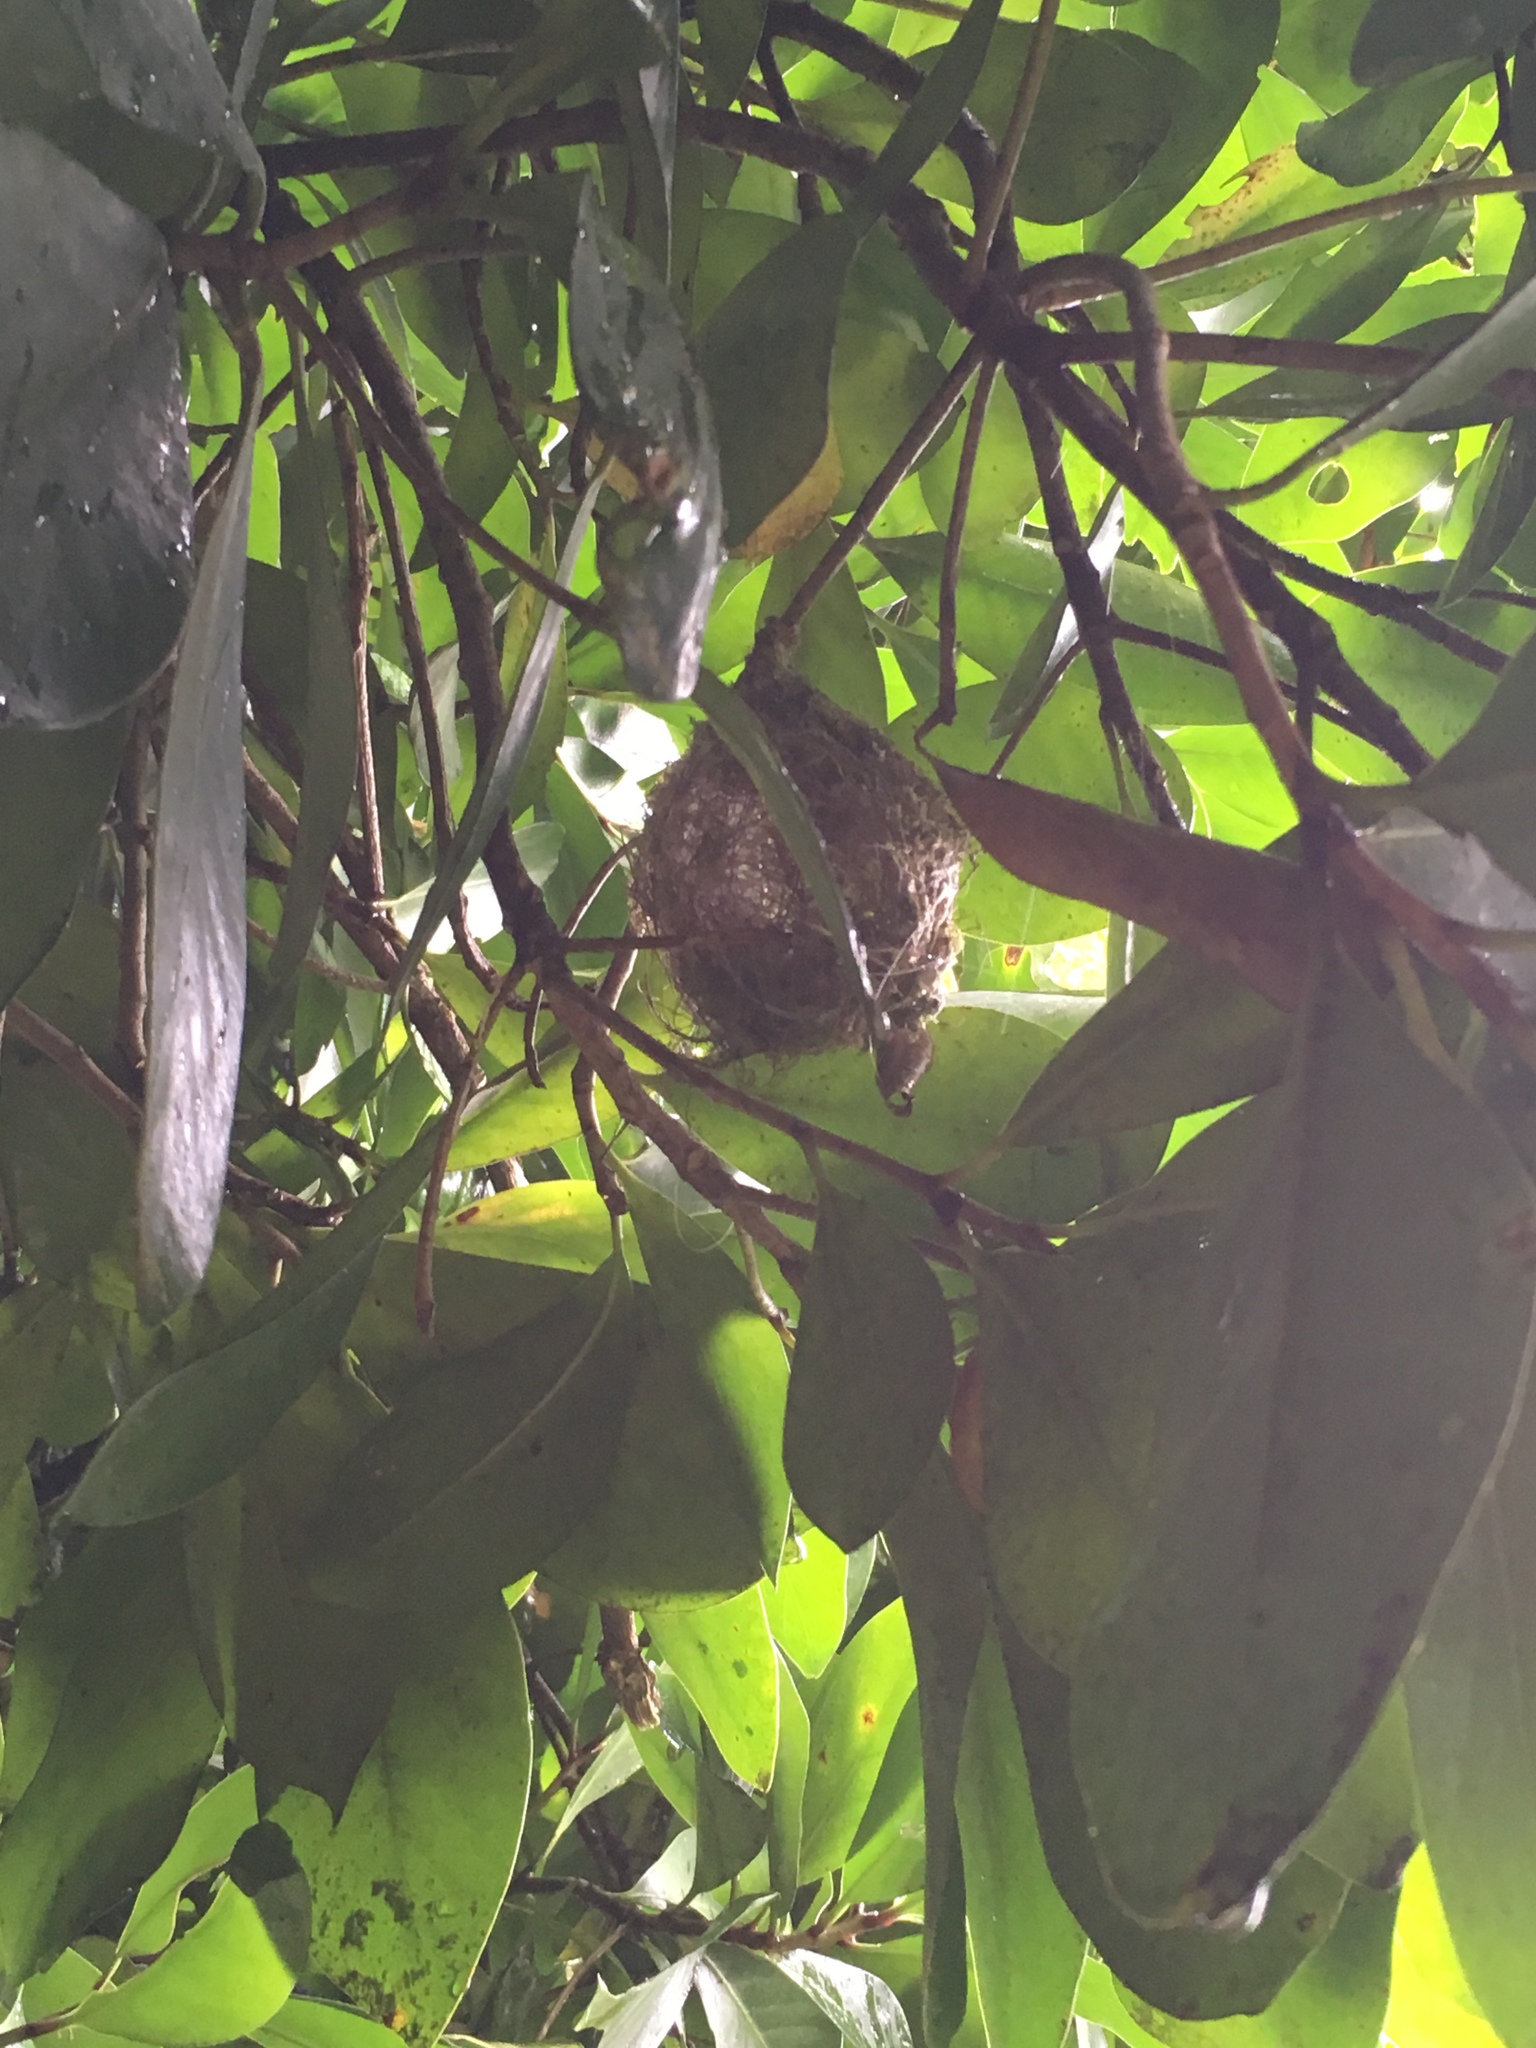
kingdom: Animalia
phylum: Chordata
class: Aves
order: Passeriformes
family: Zosteropidae
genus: Zosterops
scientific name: Zosterops lateralis
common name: Silvereye
